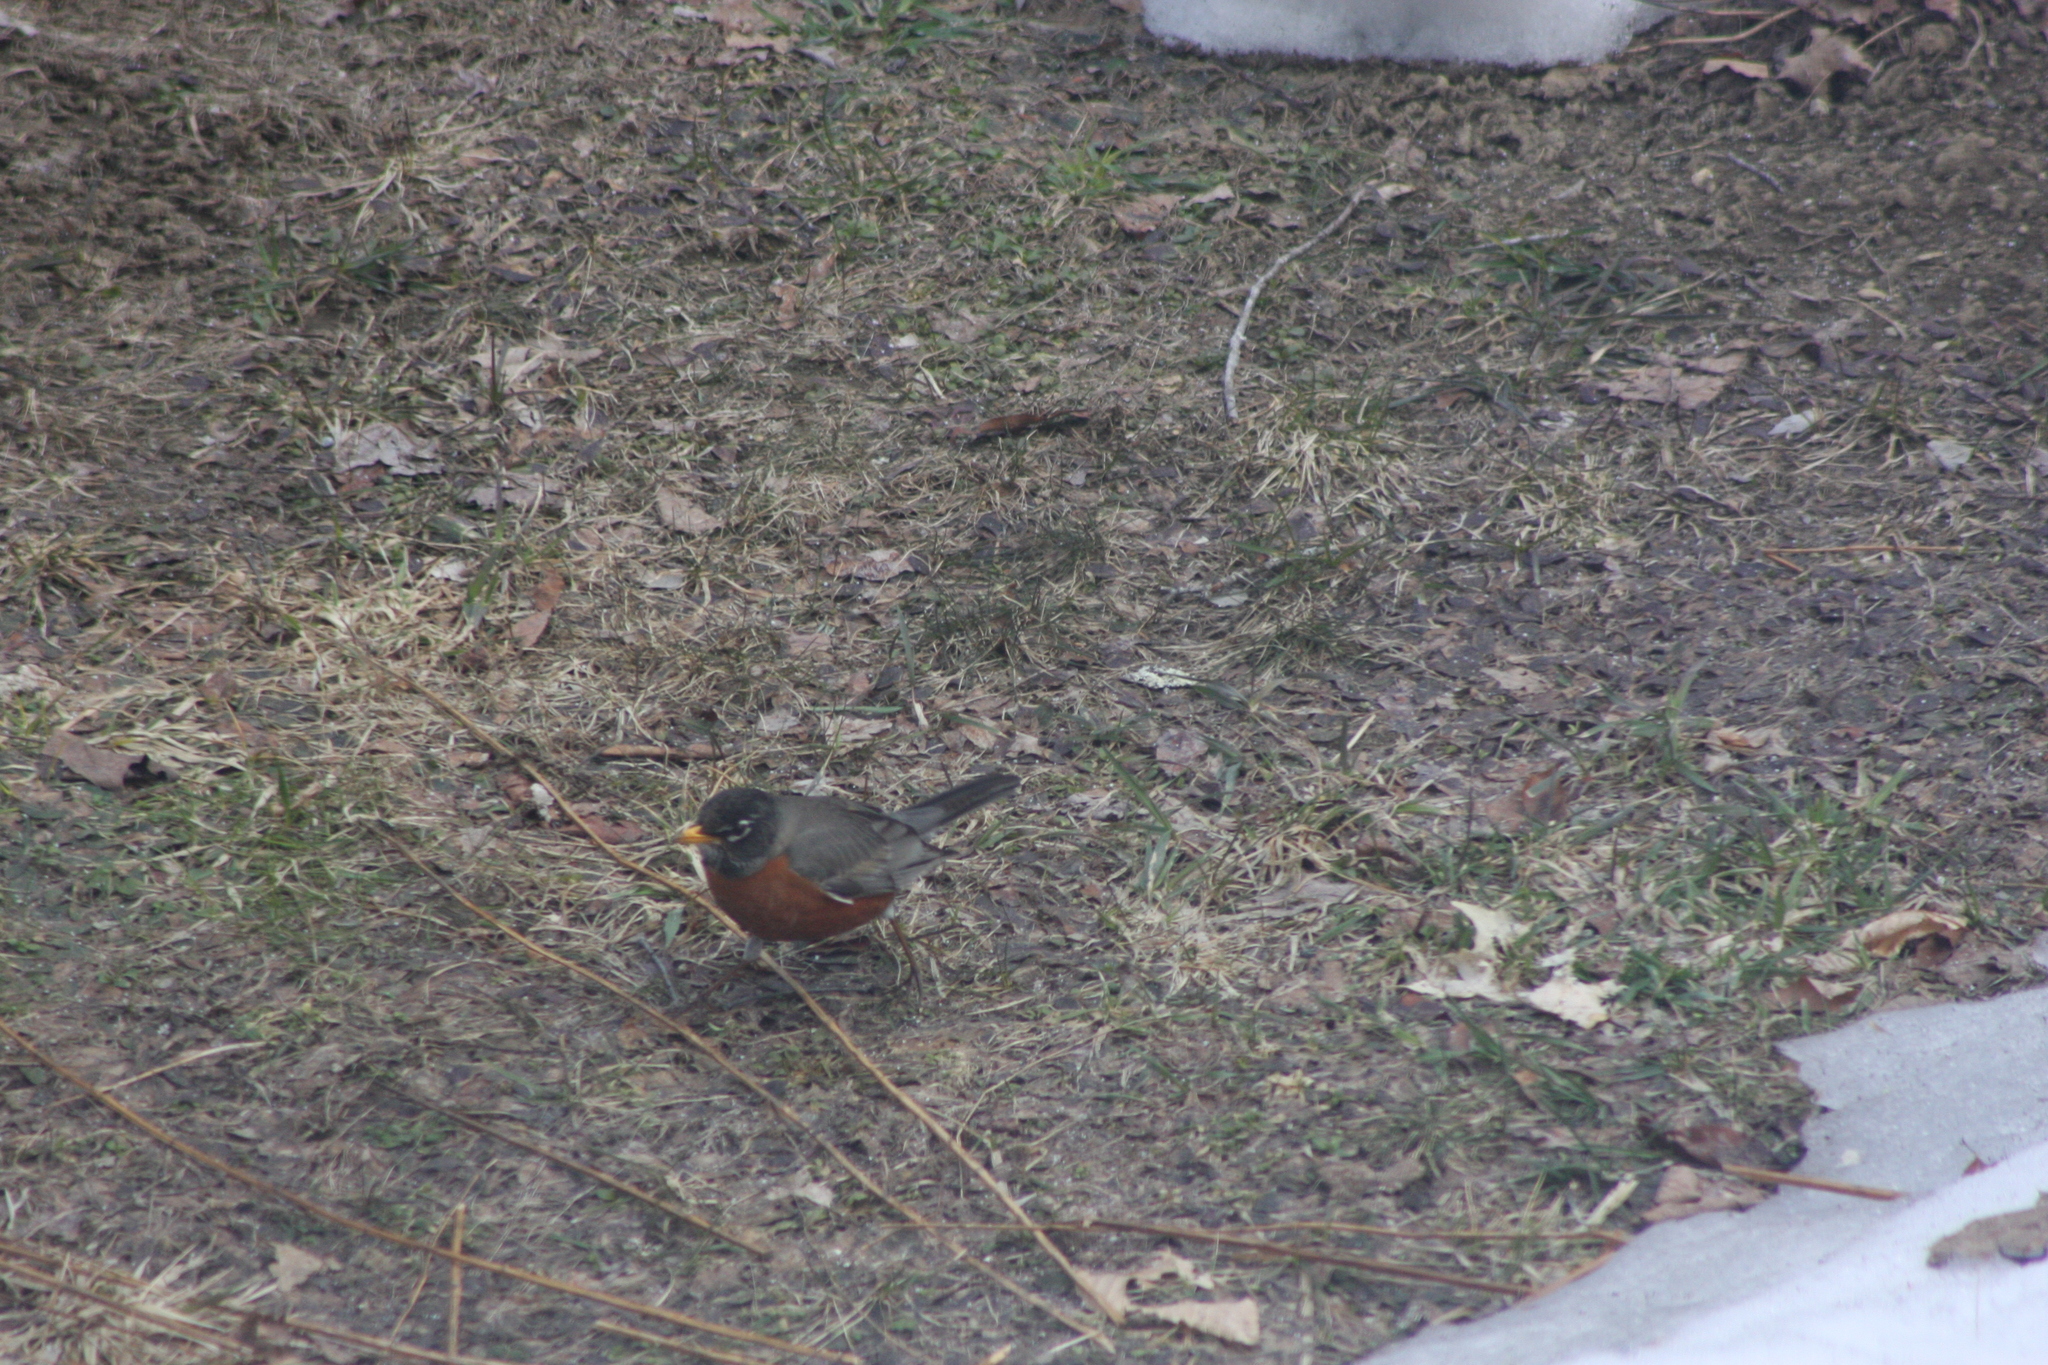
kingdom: Animalia
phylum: Chordata
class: Aves
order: Passeriformes
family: Turdidae
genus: Turdus
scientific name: Turdus migratorius
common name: American robin
